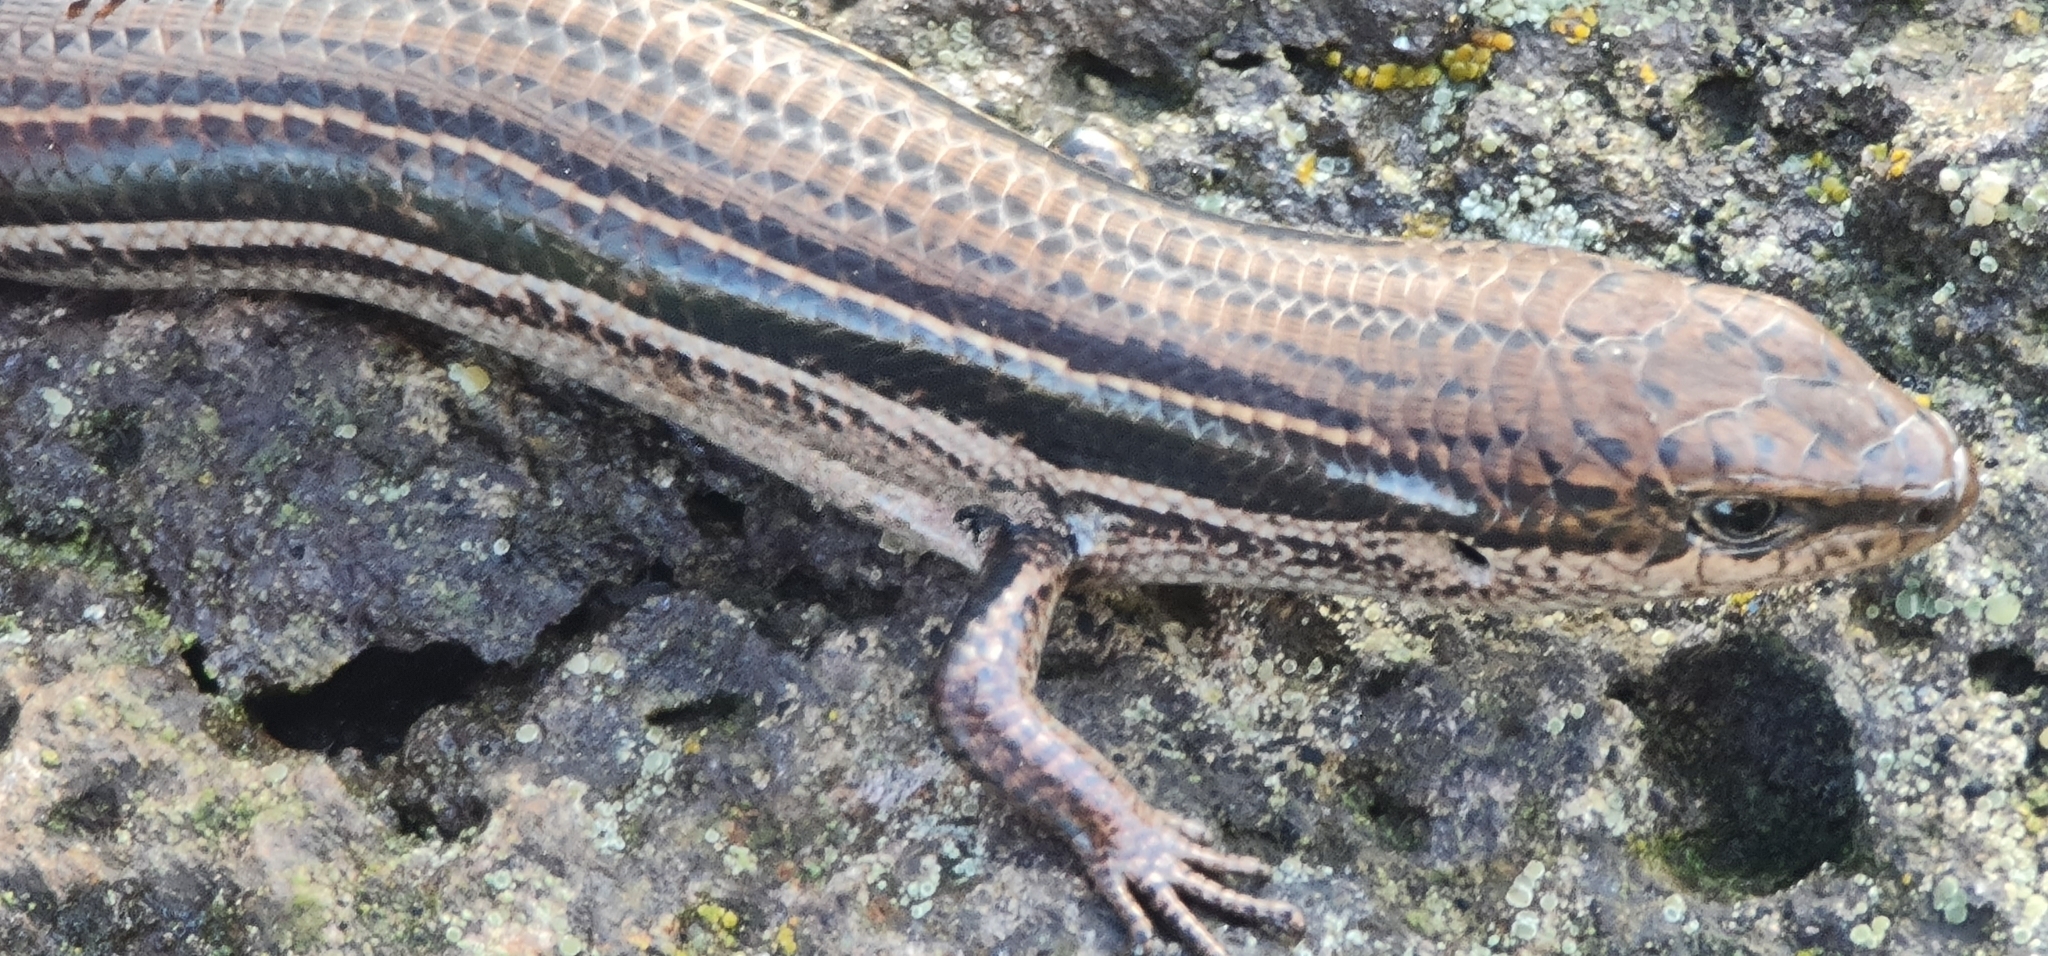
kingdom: Animalia
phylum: Chordata
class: Squamata
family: Scincidae
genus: Acritoscincus
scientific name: Acritoscincus duperreyi
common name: Bold-striped cool-skink
